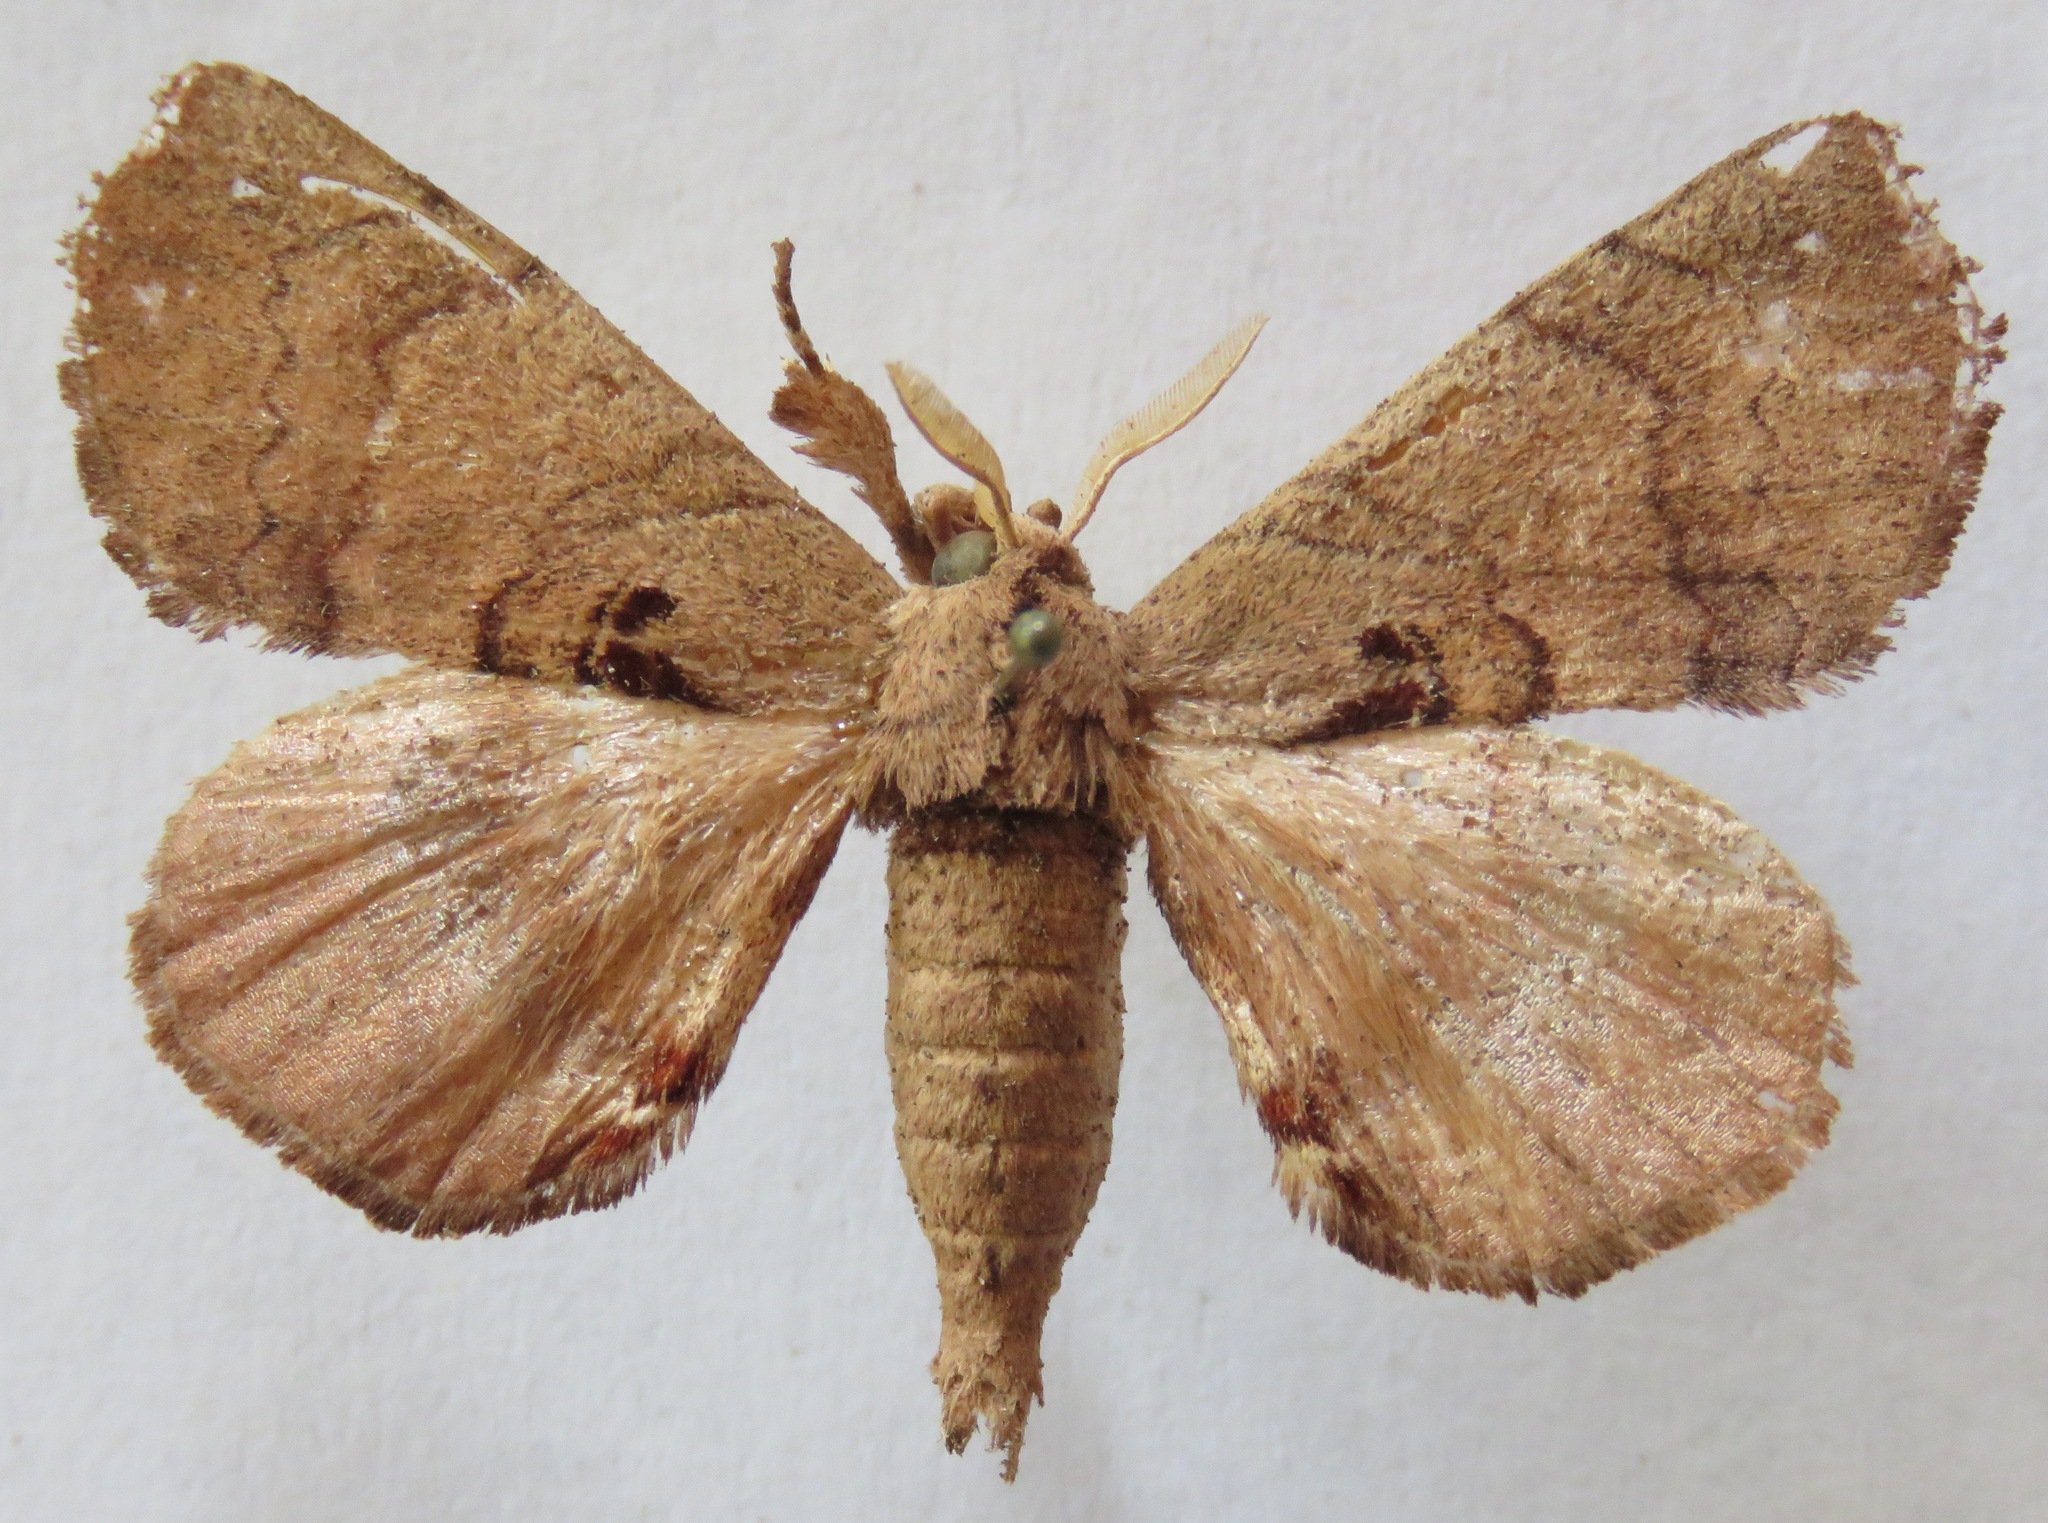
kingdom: Animalia
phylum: Arthropoda
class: Insecta
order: Lepidoptera
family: Apatelodidae
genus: Hygrochroa
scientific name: Hygrochroa
